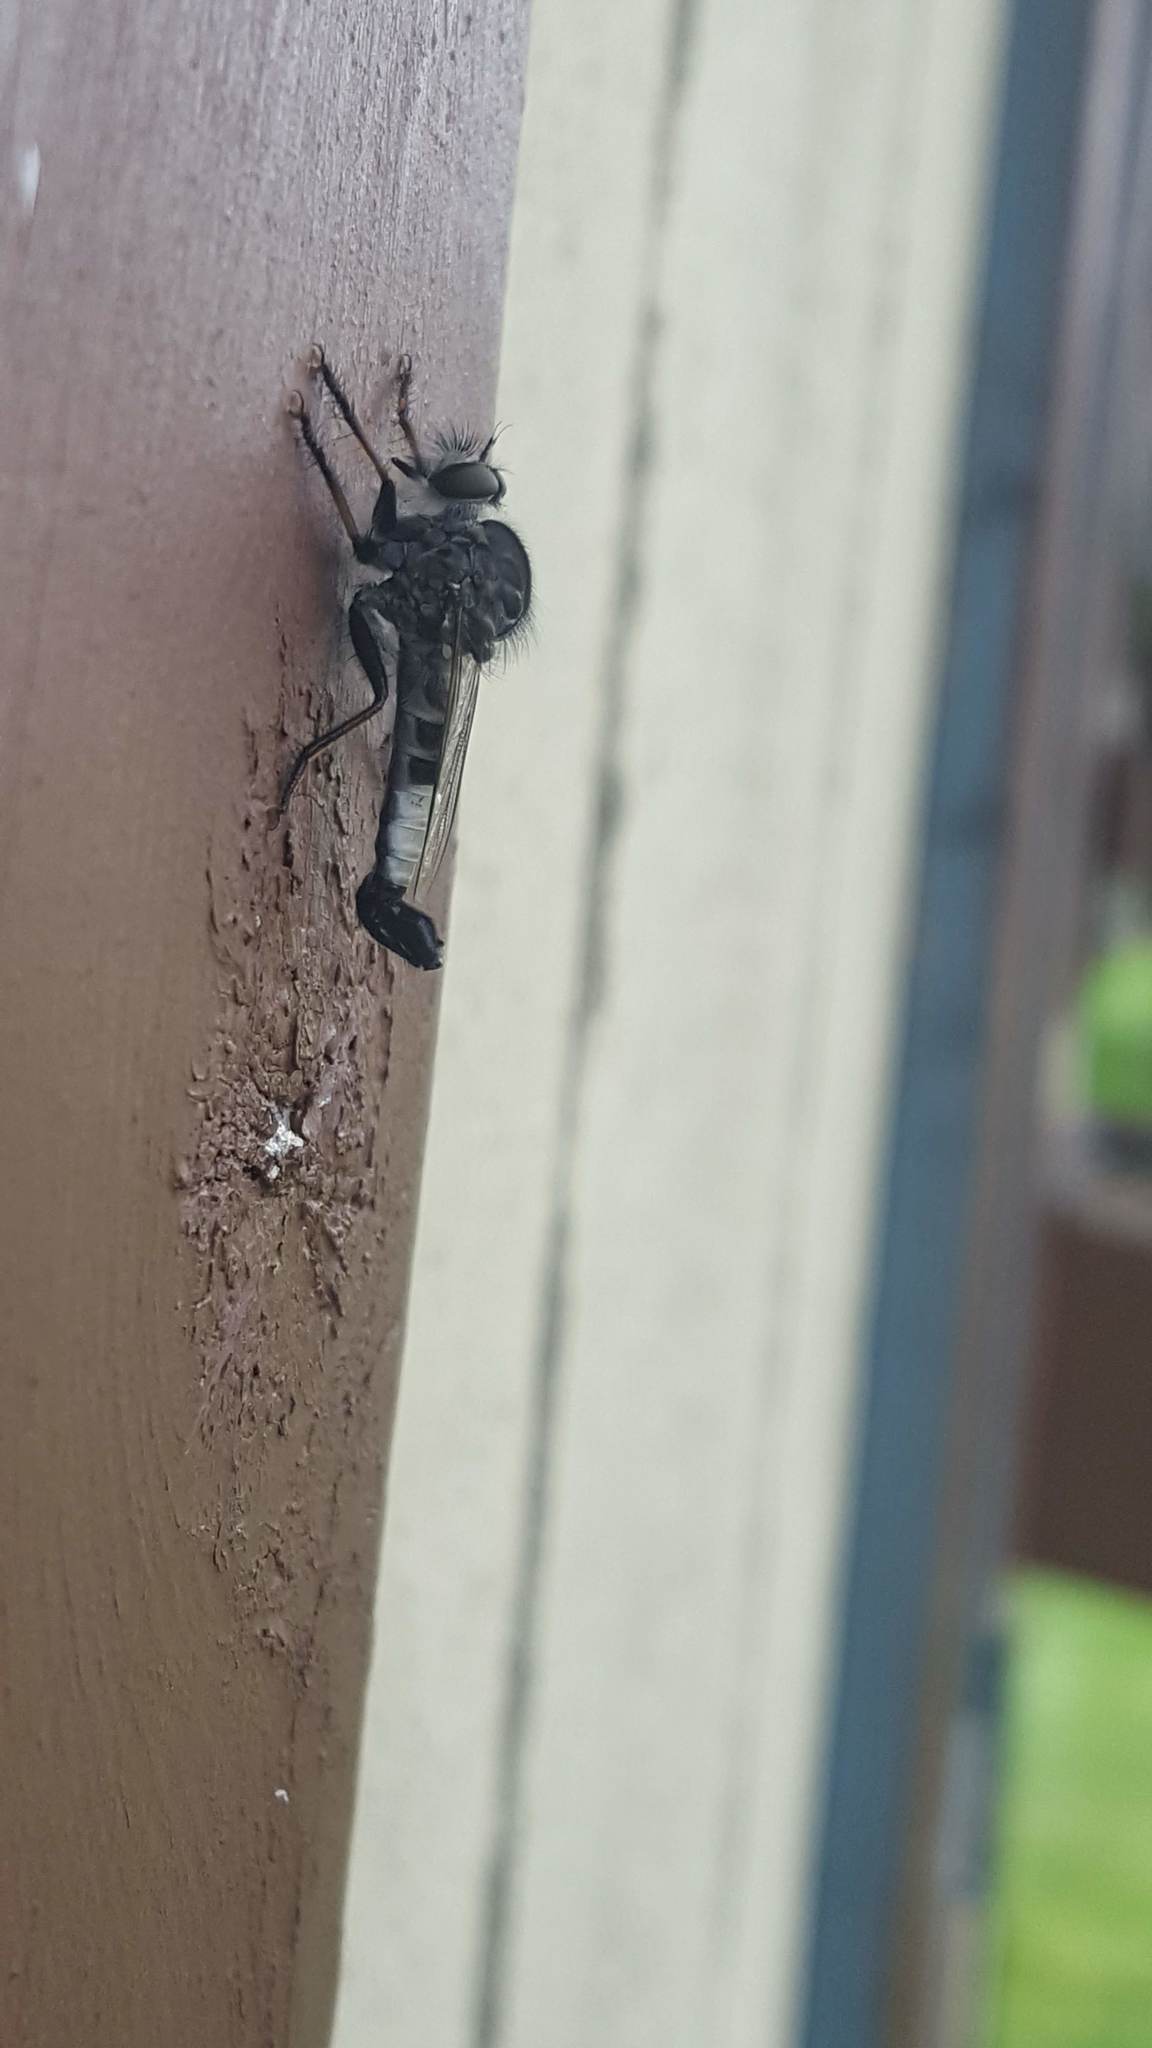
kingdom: Animalia
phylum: Arthropoda
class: Insecta
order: Diptera
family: Asilidae
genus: Efferia
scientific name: Efferia
